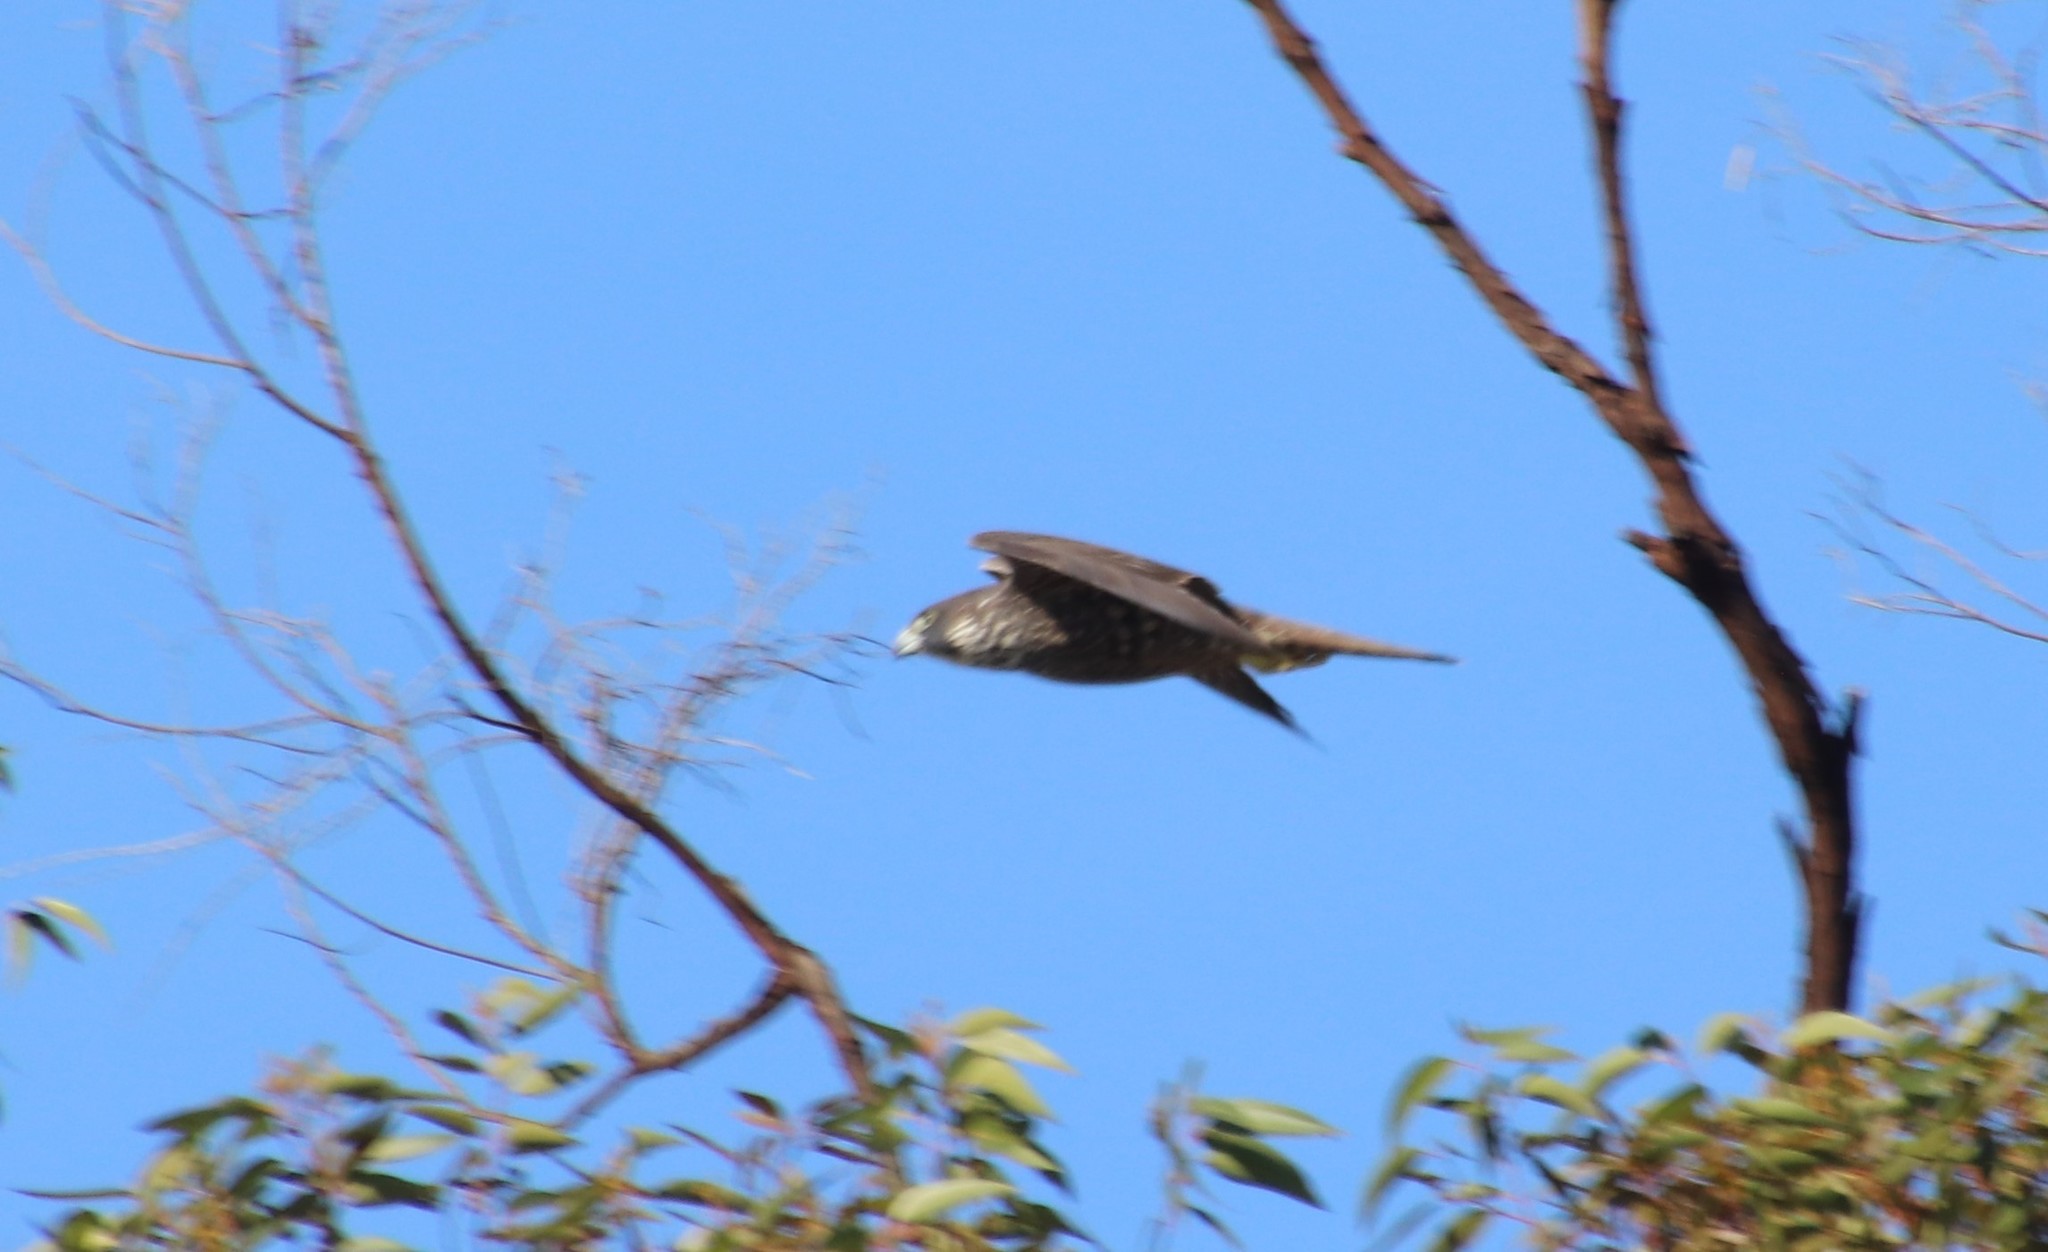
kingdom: Animalia
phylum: Chordata
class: Aves
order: Falconiformes
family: Falconidae
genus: Falco
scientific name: Falco peregrinus
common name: Peregrine falcon
